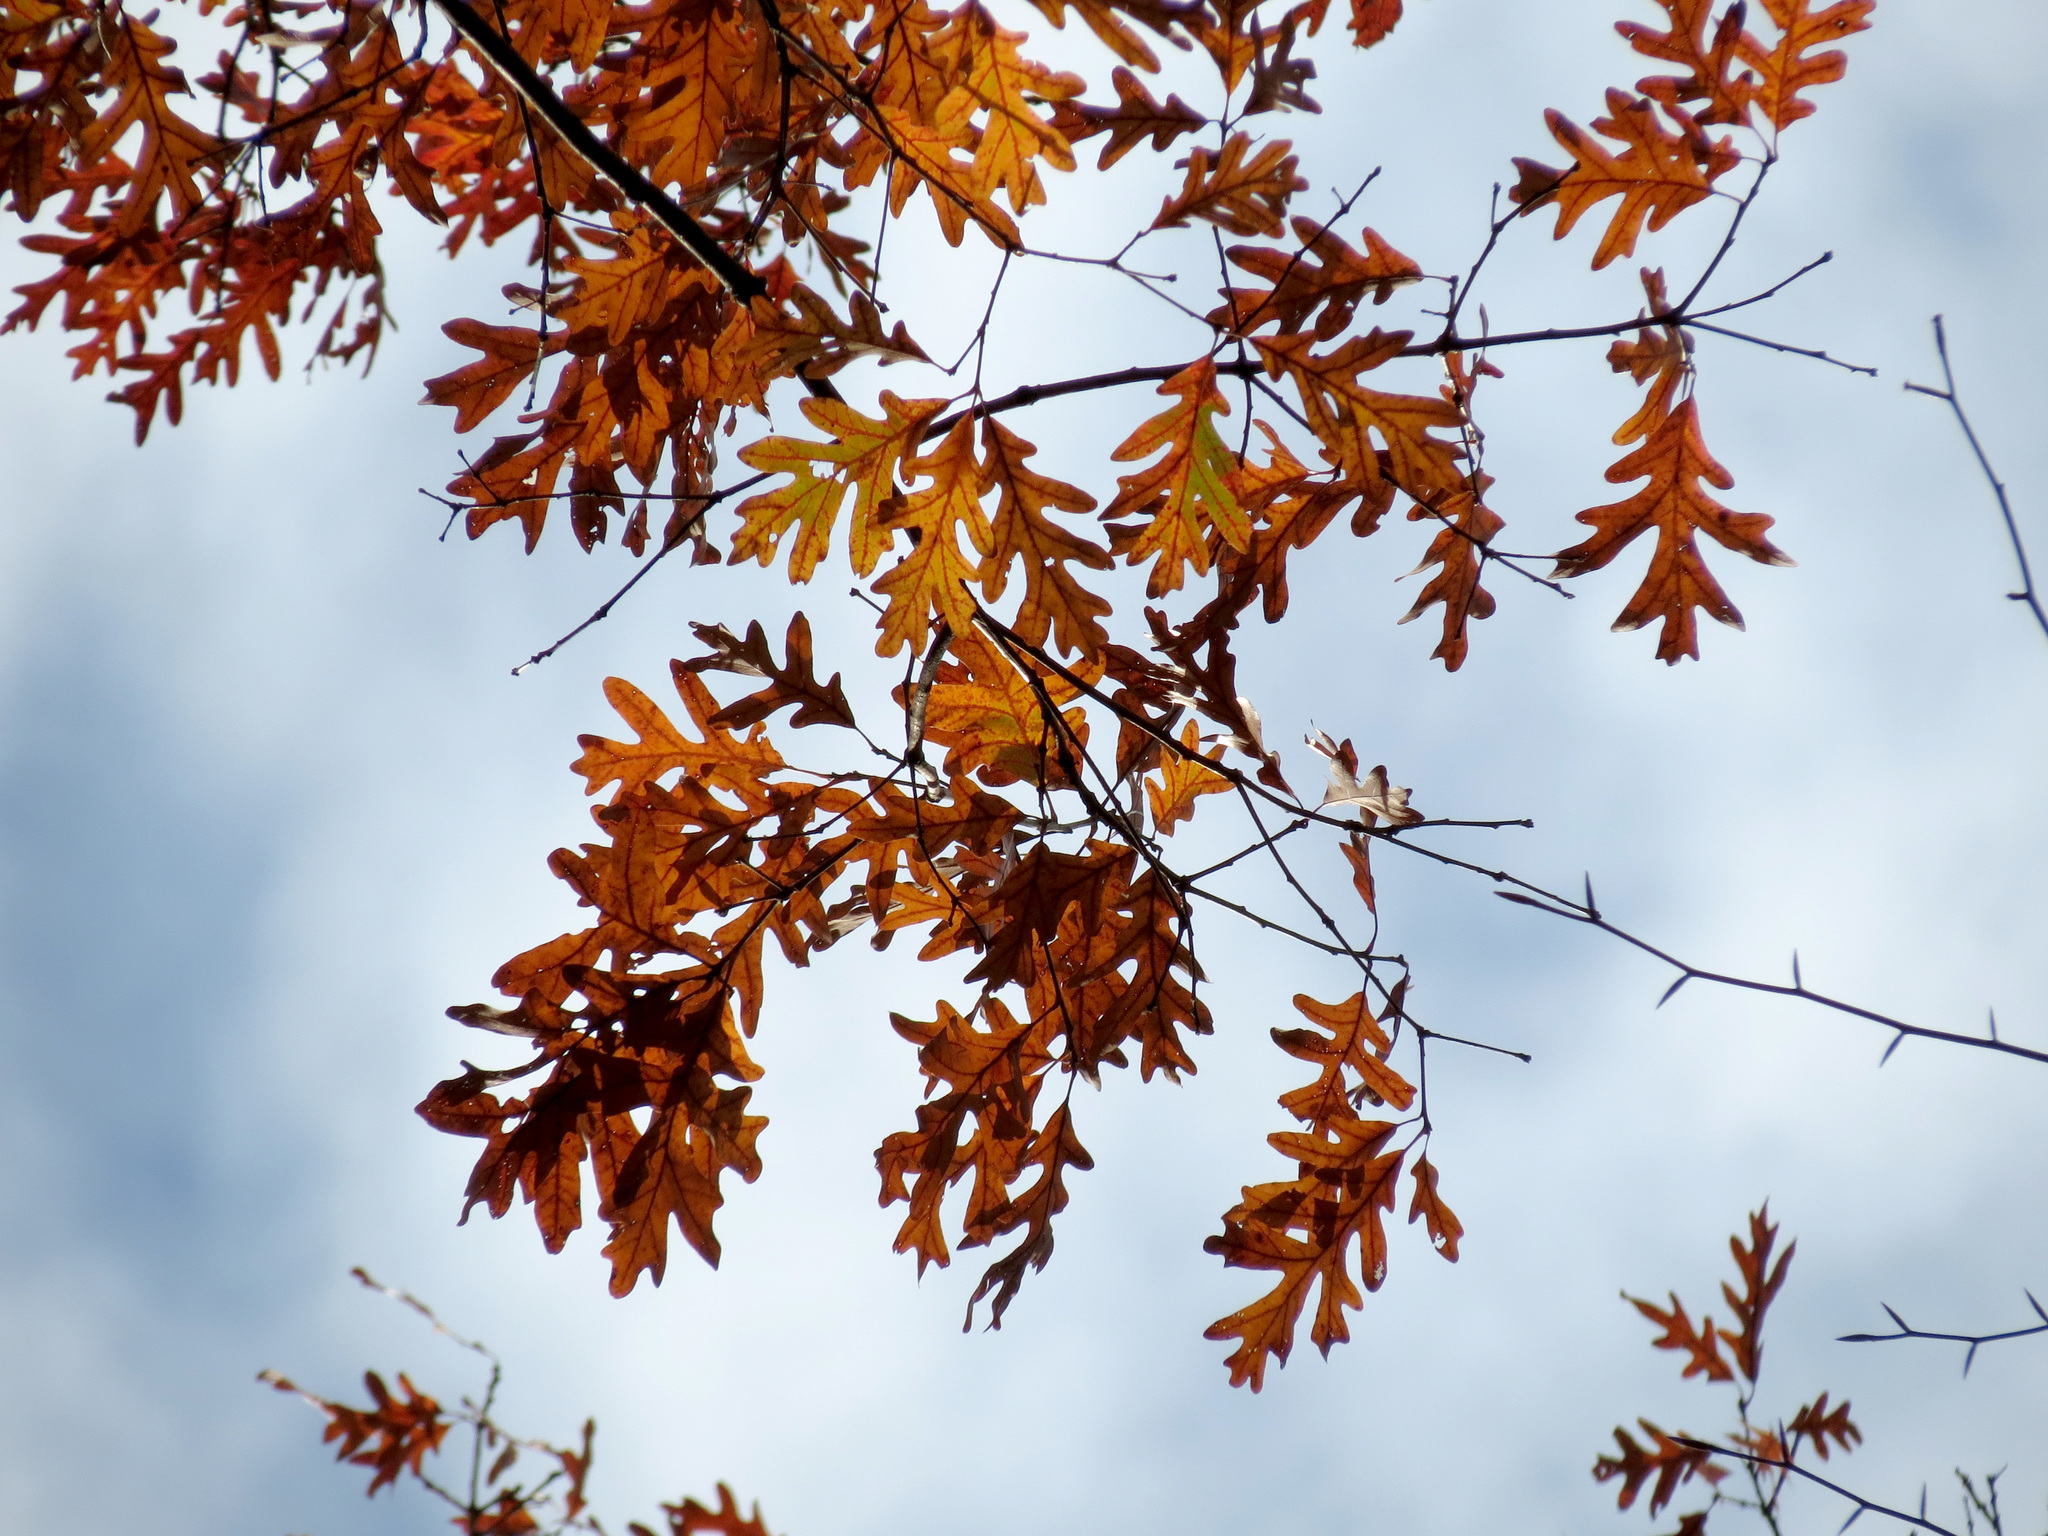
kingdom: Plantae
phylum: Tracheophyta
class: Magnoliopsida
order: Fagales
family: Fagaceae
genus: Quercus
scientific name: Quercus alba
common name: White oak
